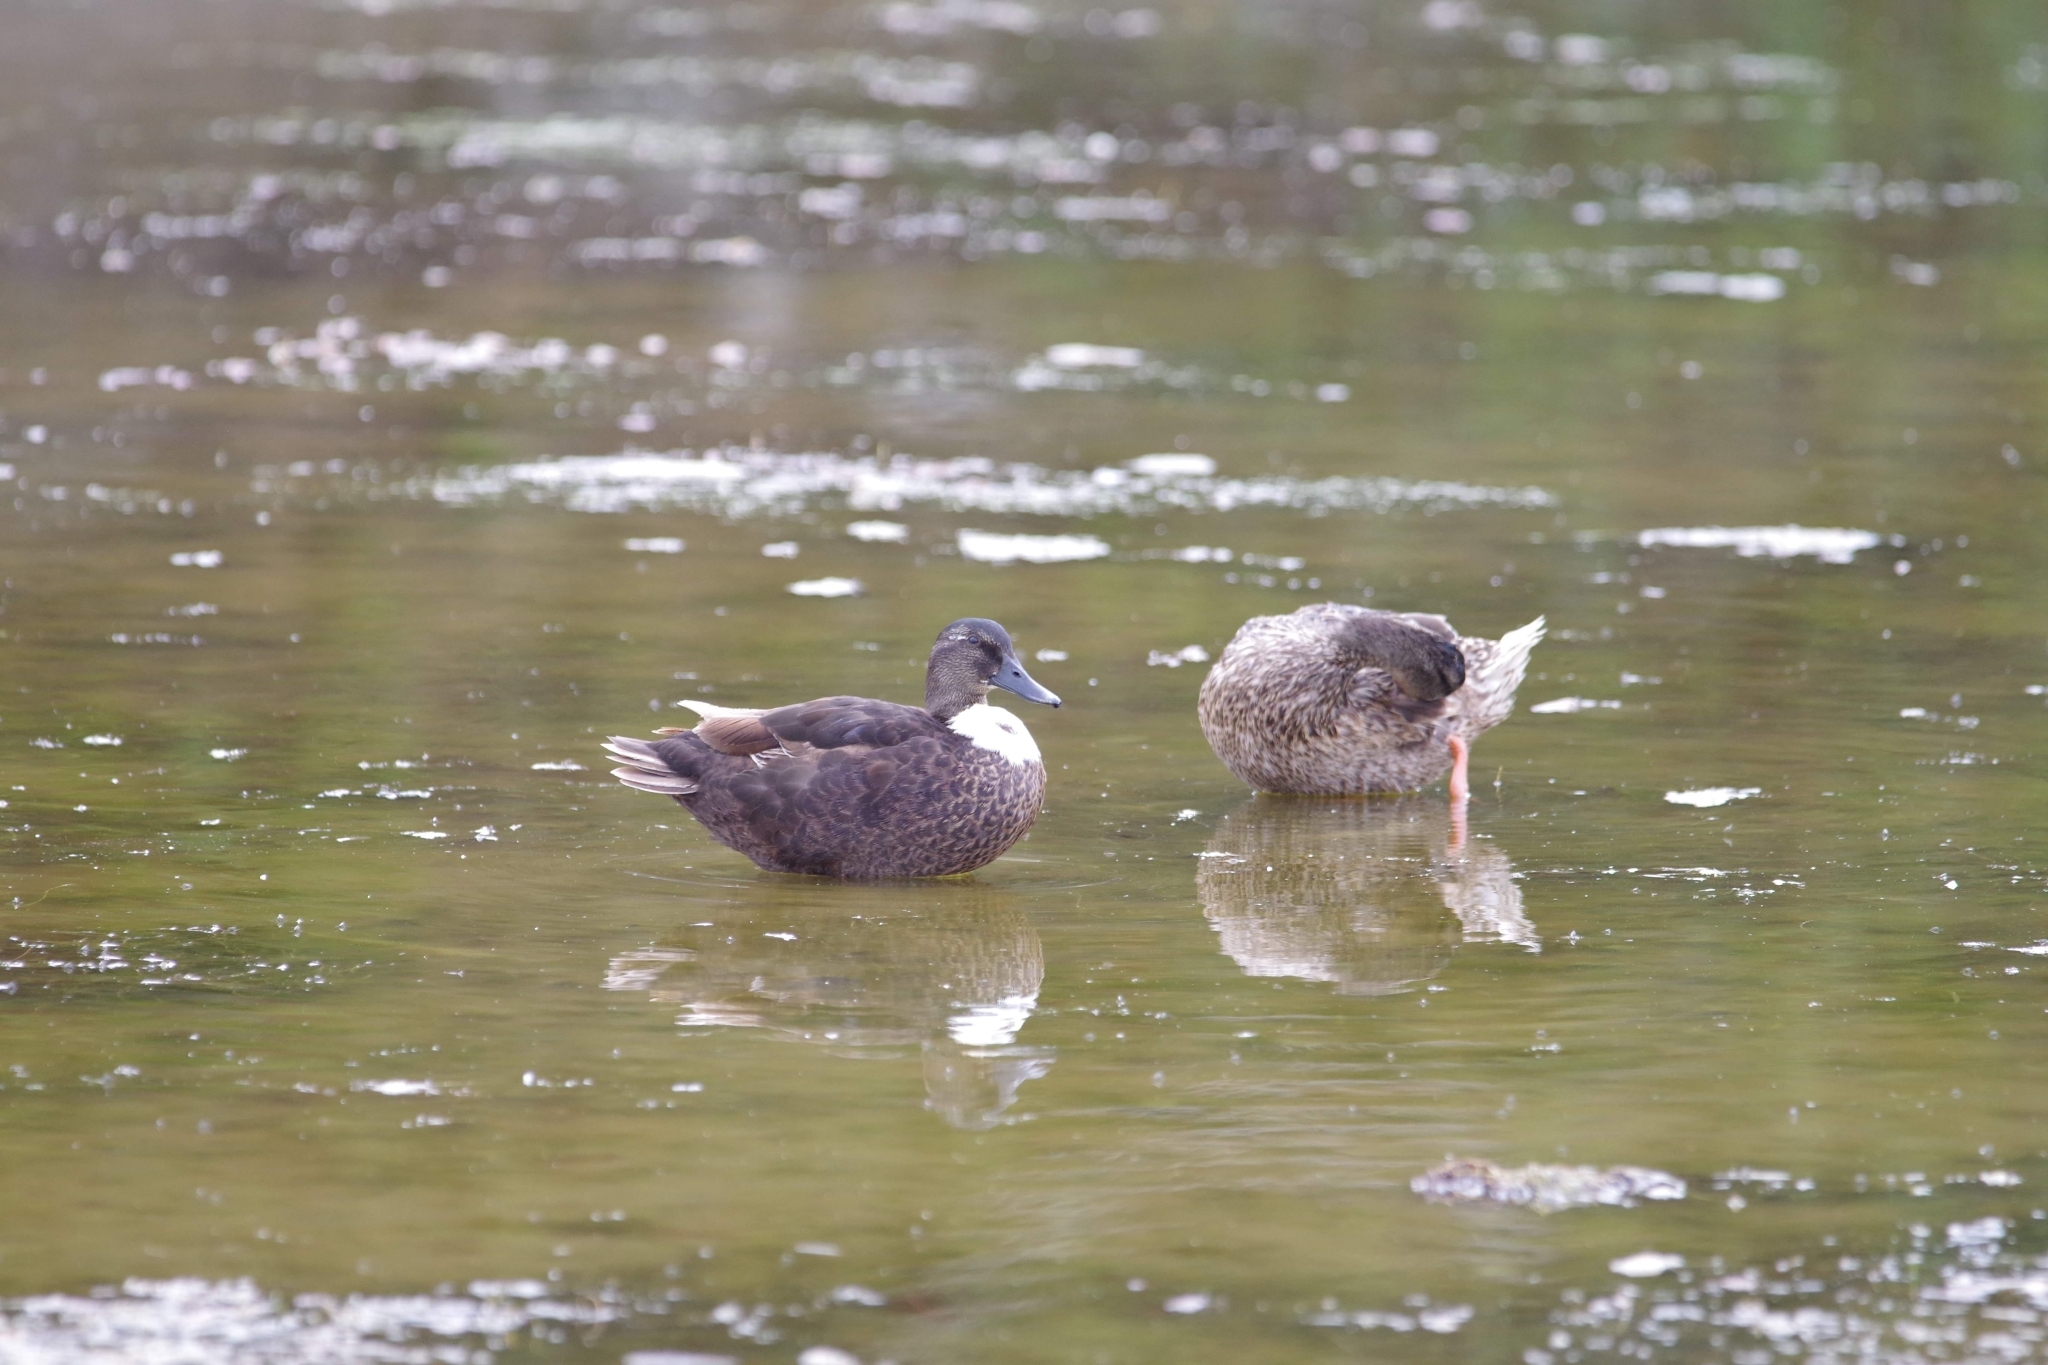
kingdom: Animalia
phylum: Chordata
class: Aves
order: Anseriformes
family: Anatidae
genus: Anas
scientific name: Anas platyrhynchos
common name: Mallard
